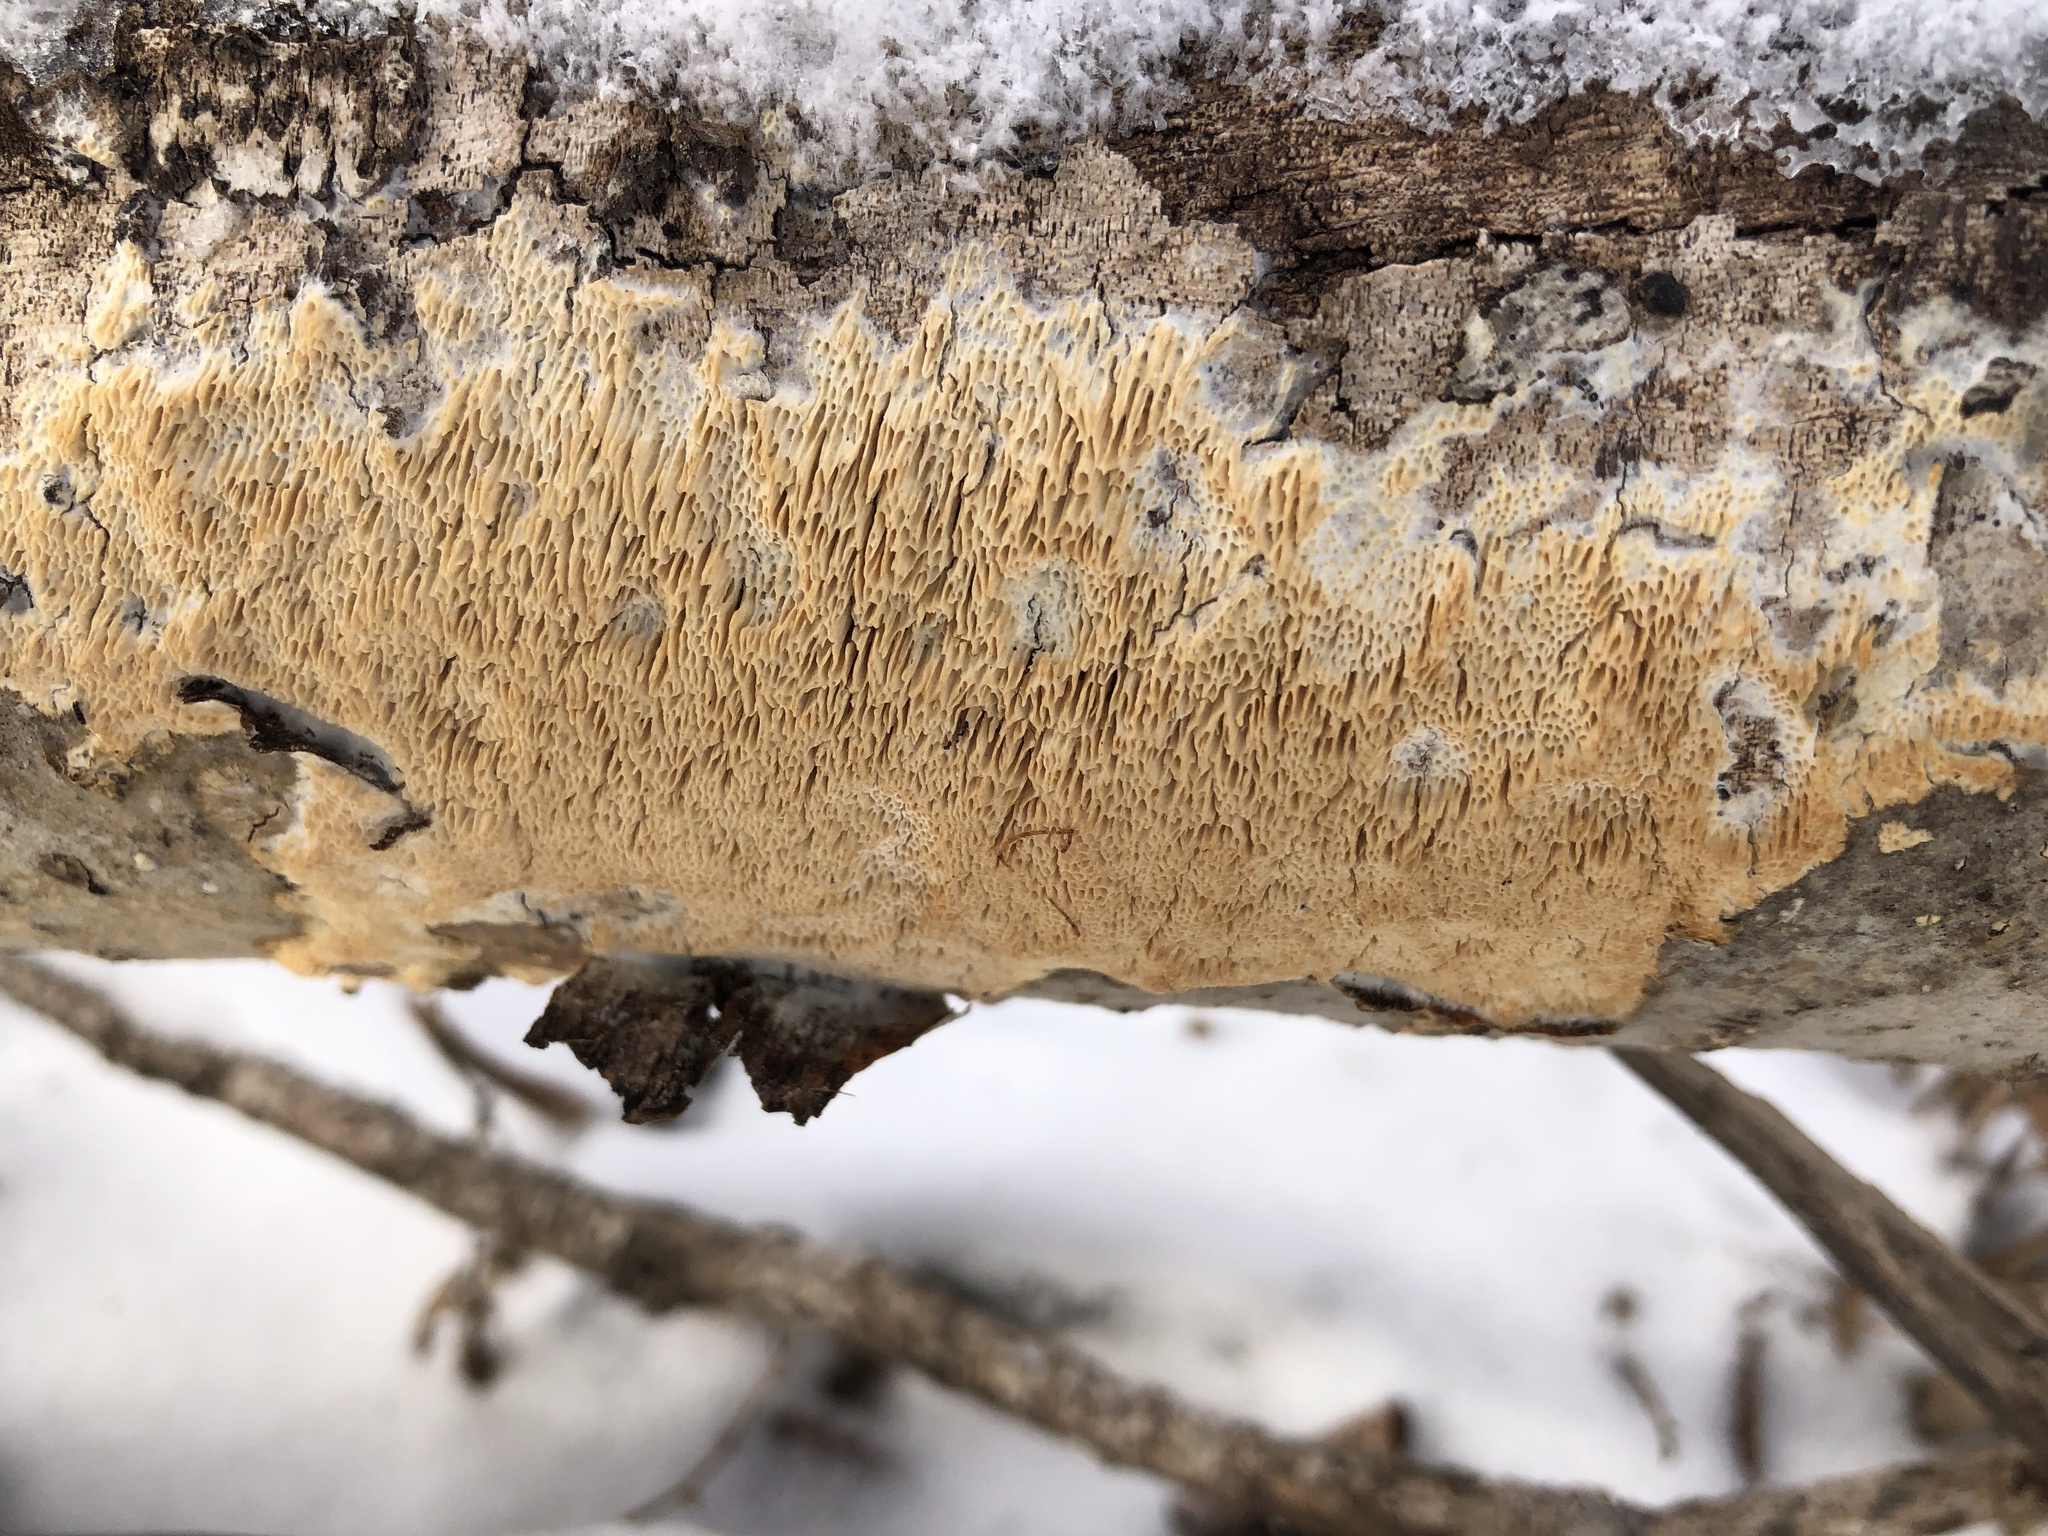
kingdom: Fungi
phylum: Basidiomycota
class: Agaricomycetes
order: Polyporales
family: Irpicaceae
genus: Irpex
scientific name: Irpex lacteus
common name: Milk-white toothed polypore
